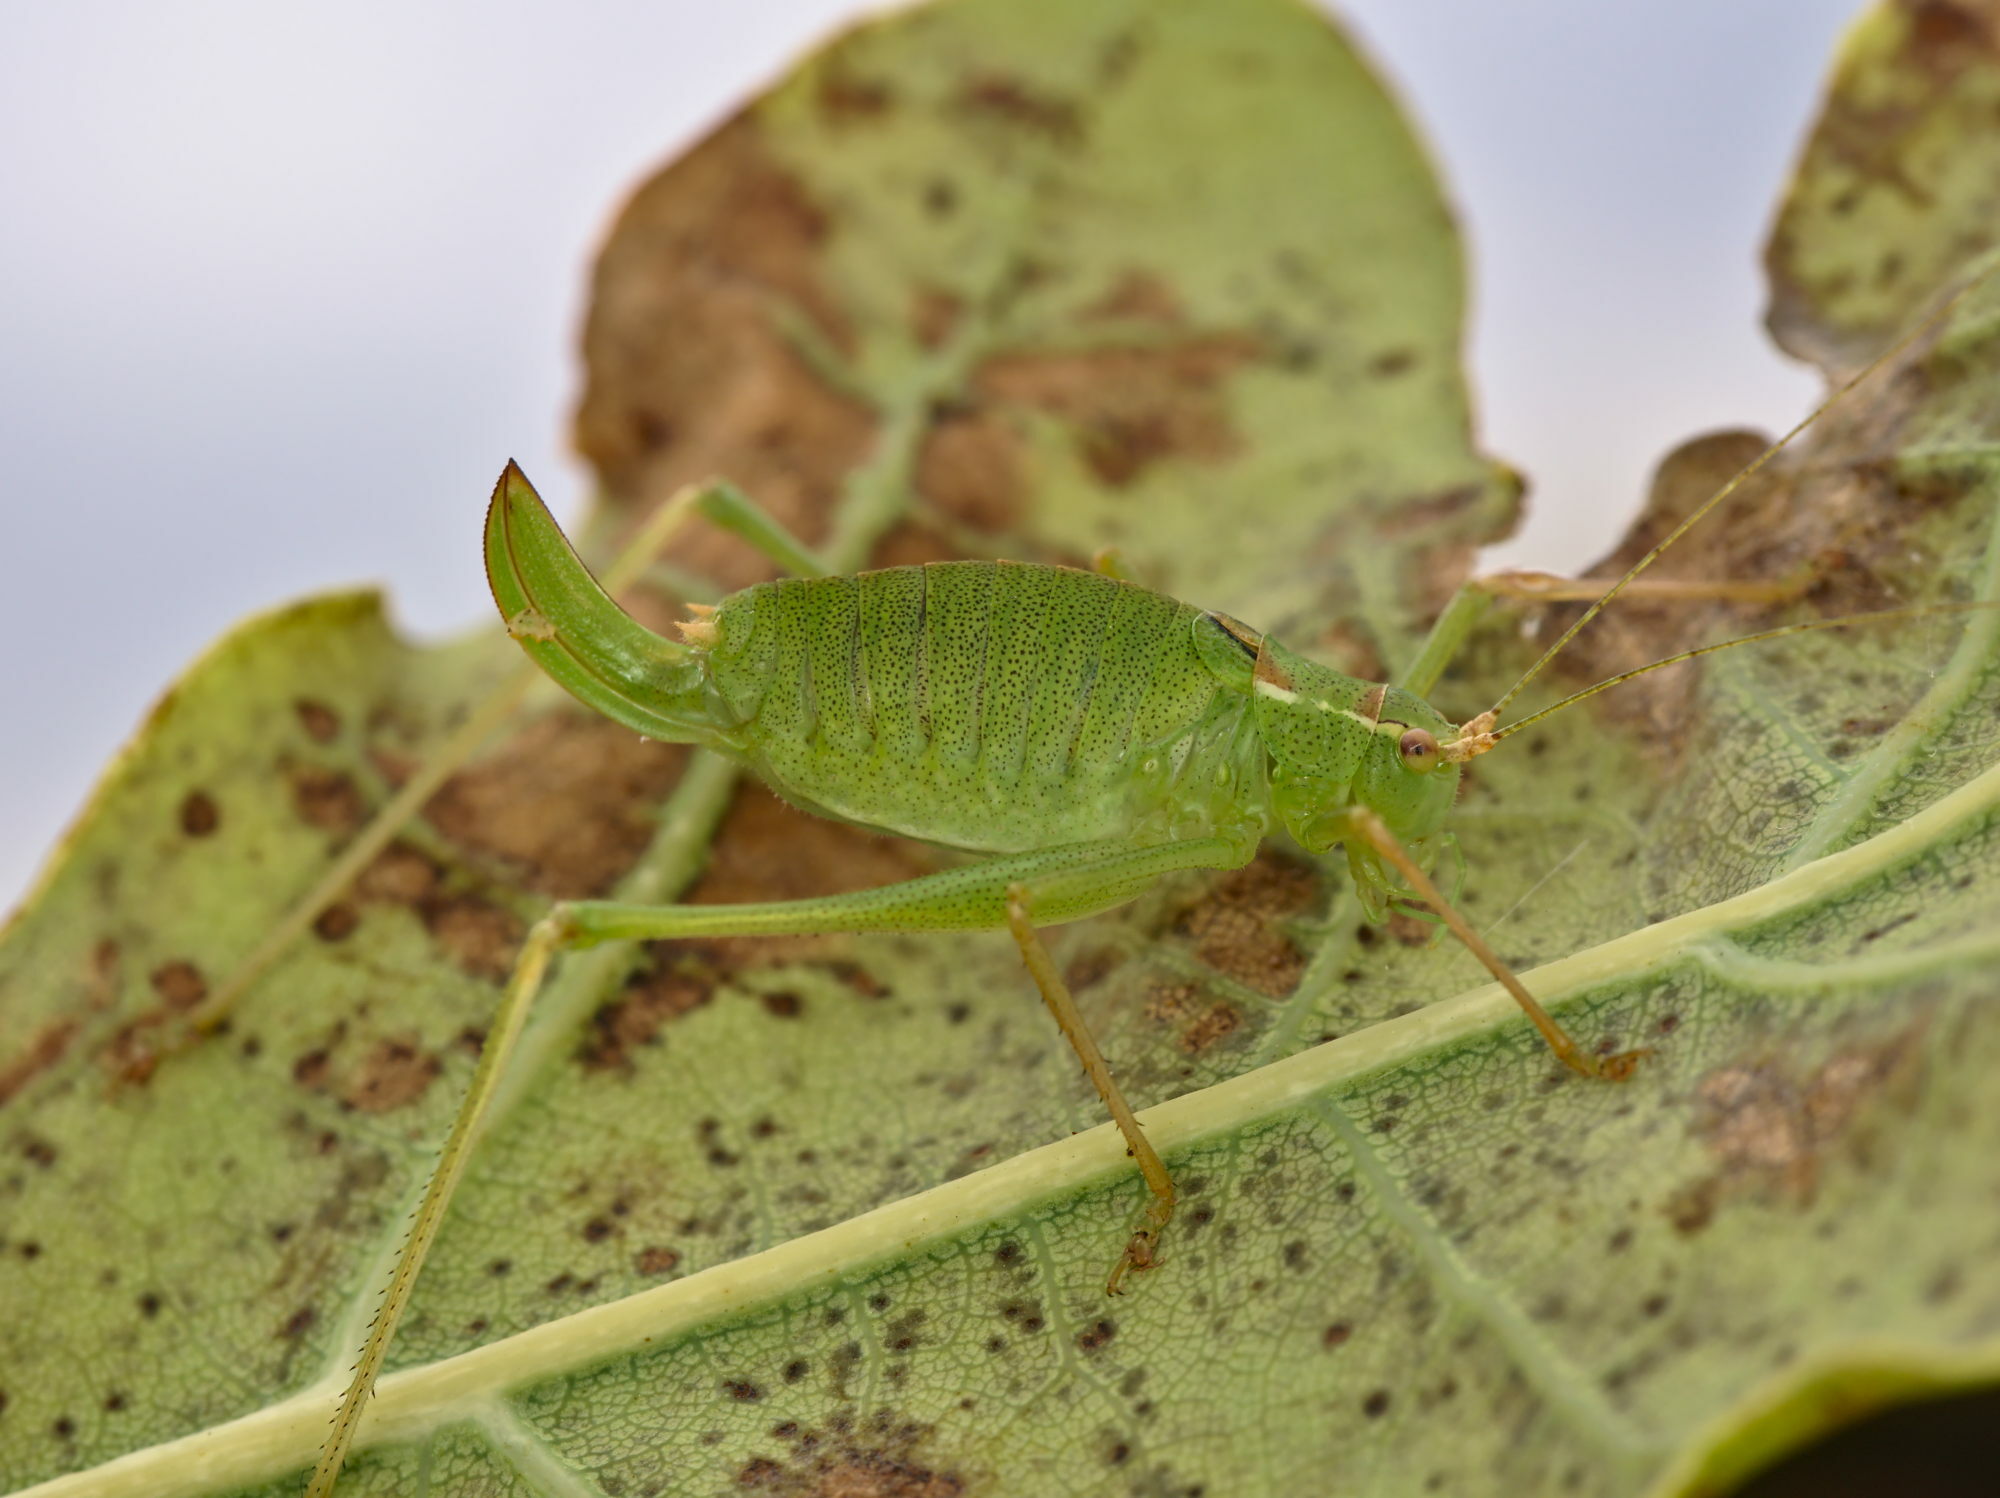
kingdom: Animalia
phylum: Arthropoda
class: Insecta
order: Orthoptera
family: Tettigoniidae
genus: Leptophyes
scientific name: Leptophyes punctatissima
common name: Speckled bush-cricket
